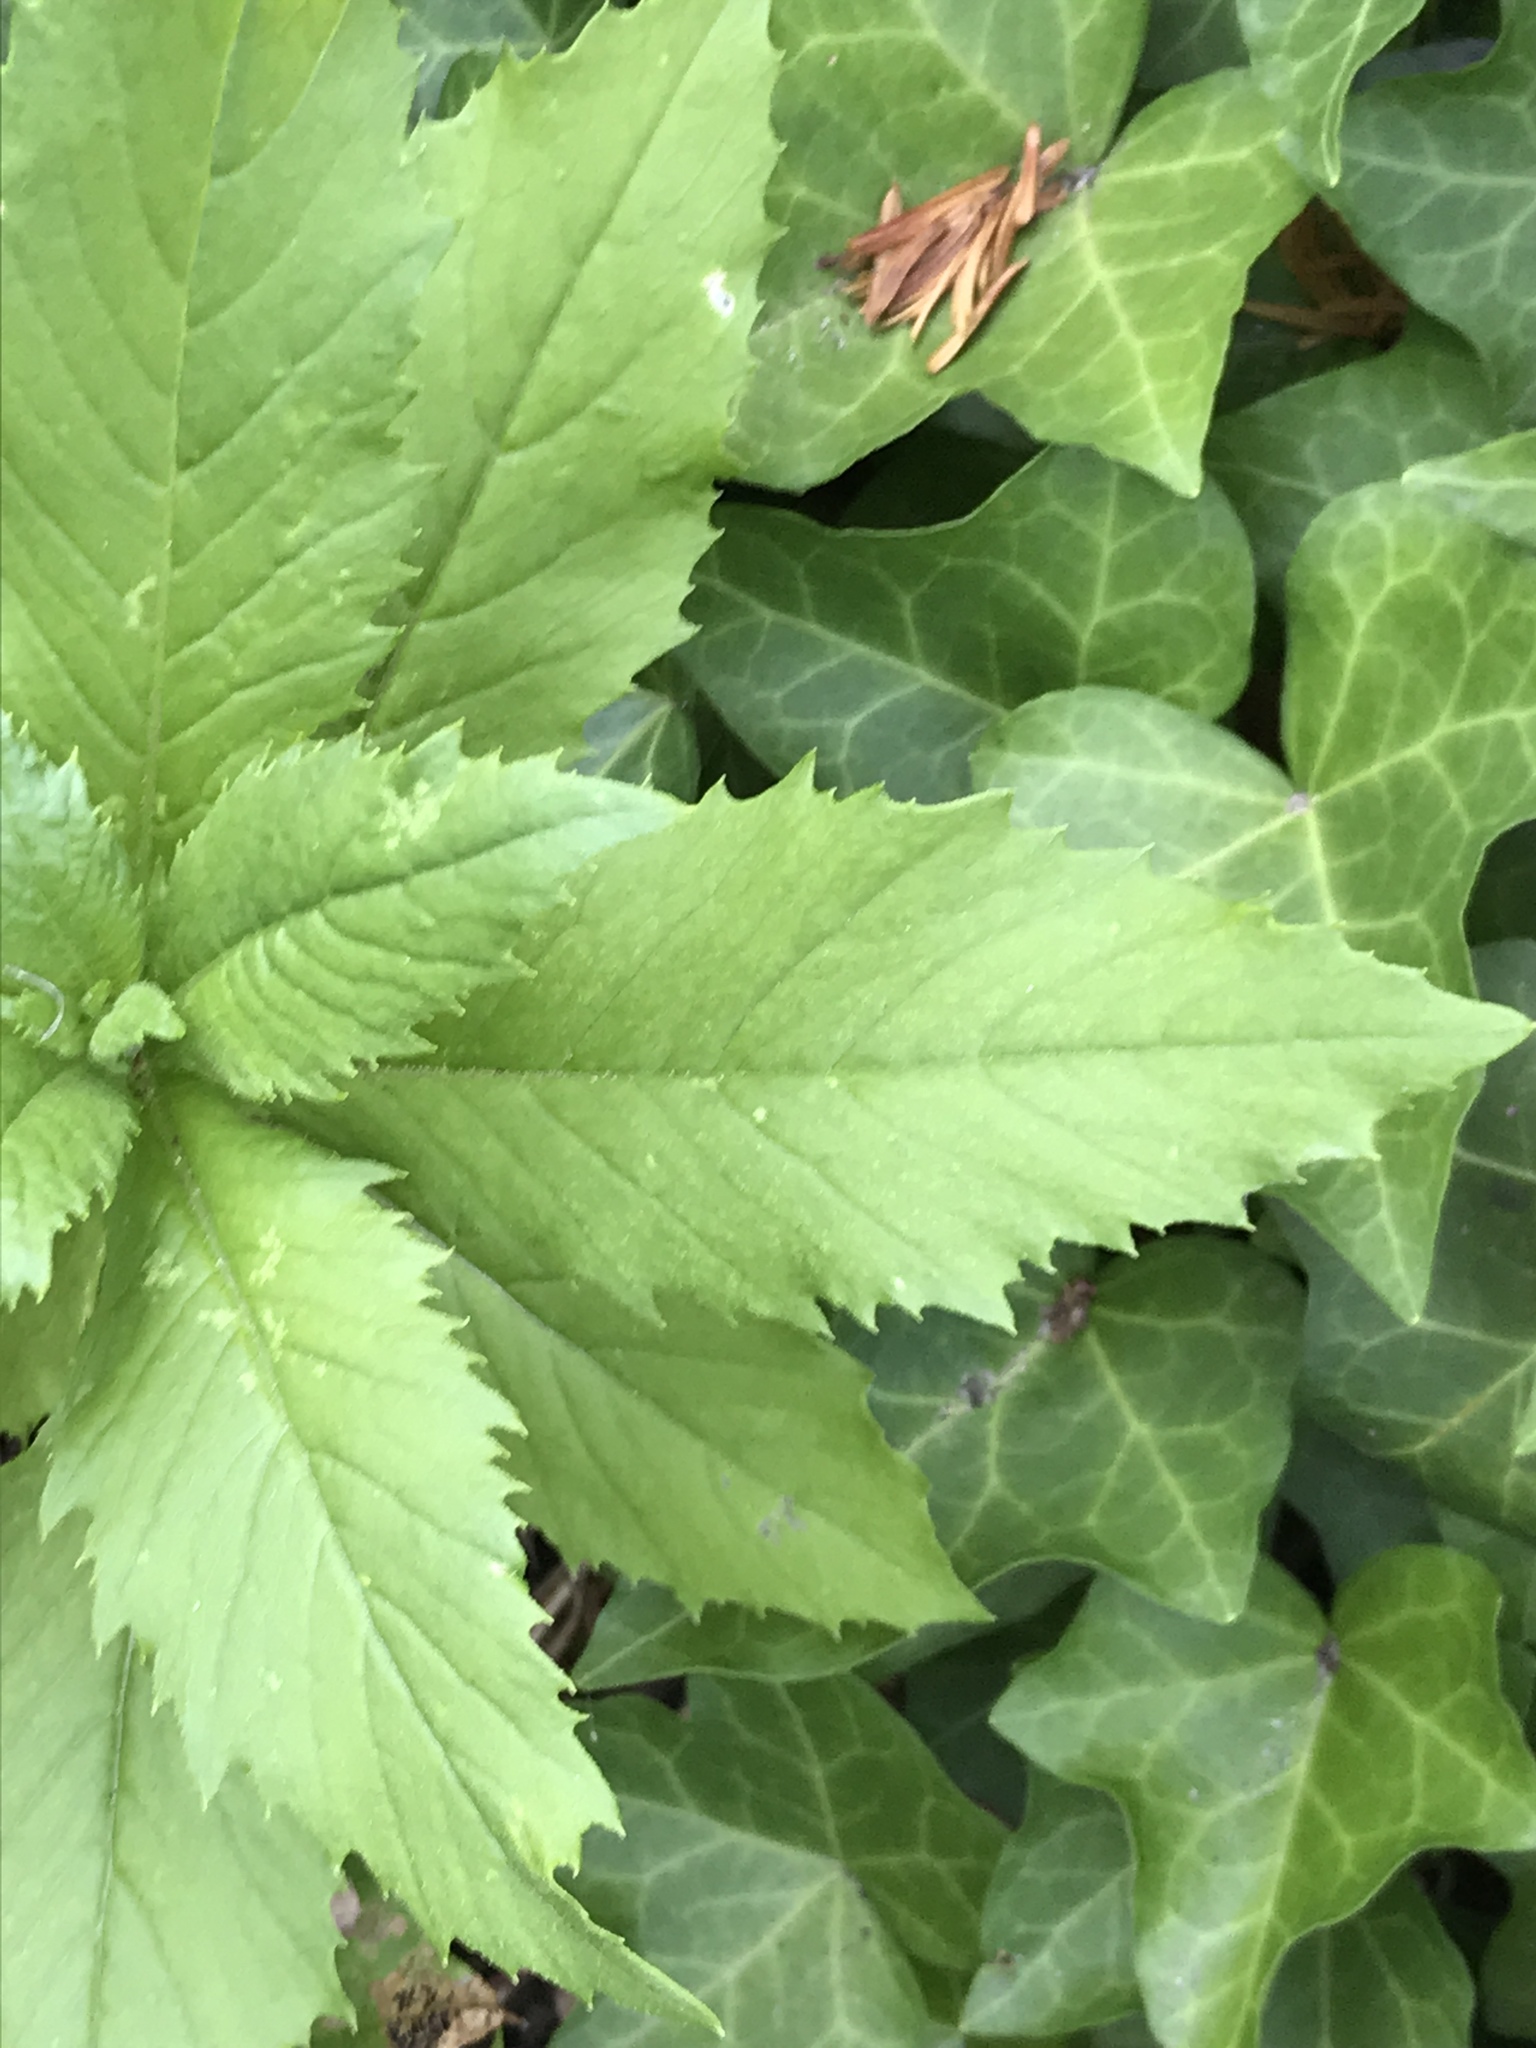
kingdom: Plantae
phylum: Tracheophyta
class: Magnoliopsida
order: Asterales
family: Asteraceae
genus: Erechtites
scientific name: Erechtites hieraciifolius
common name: American burnweed
